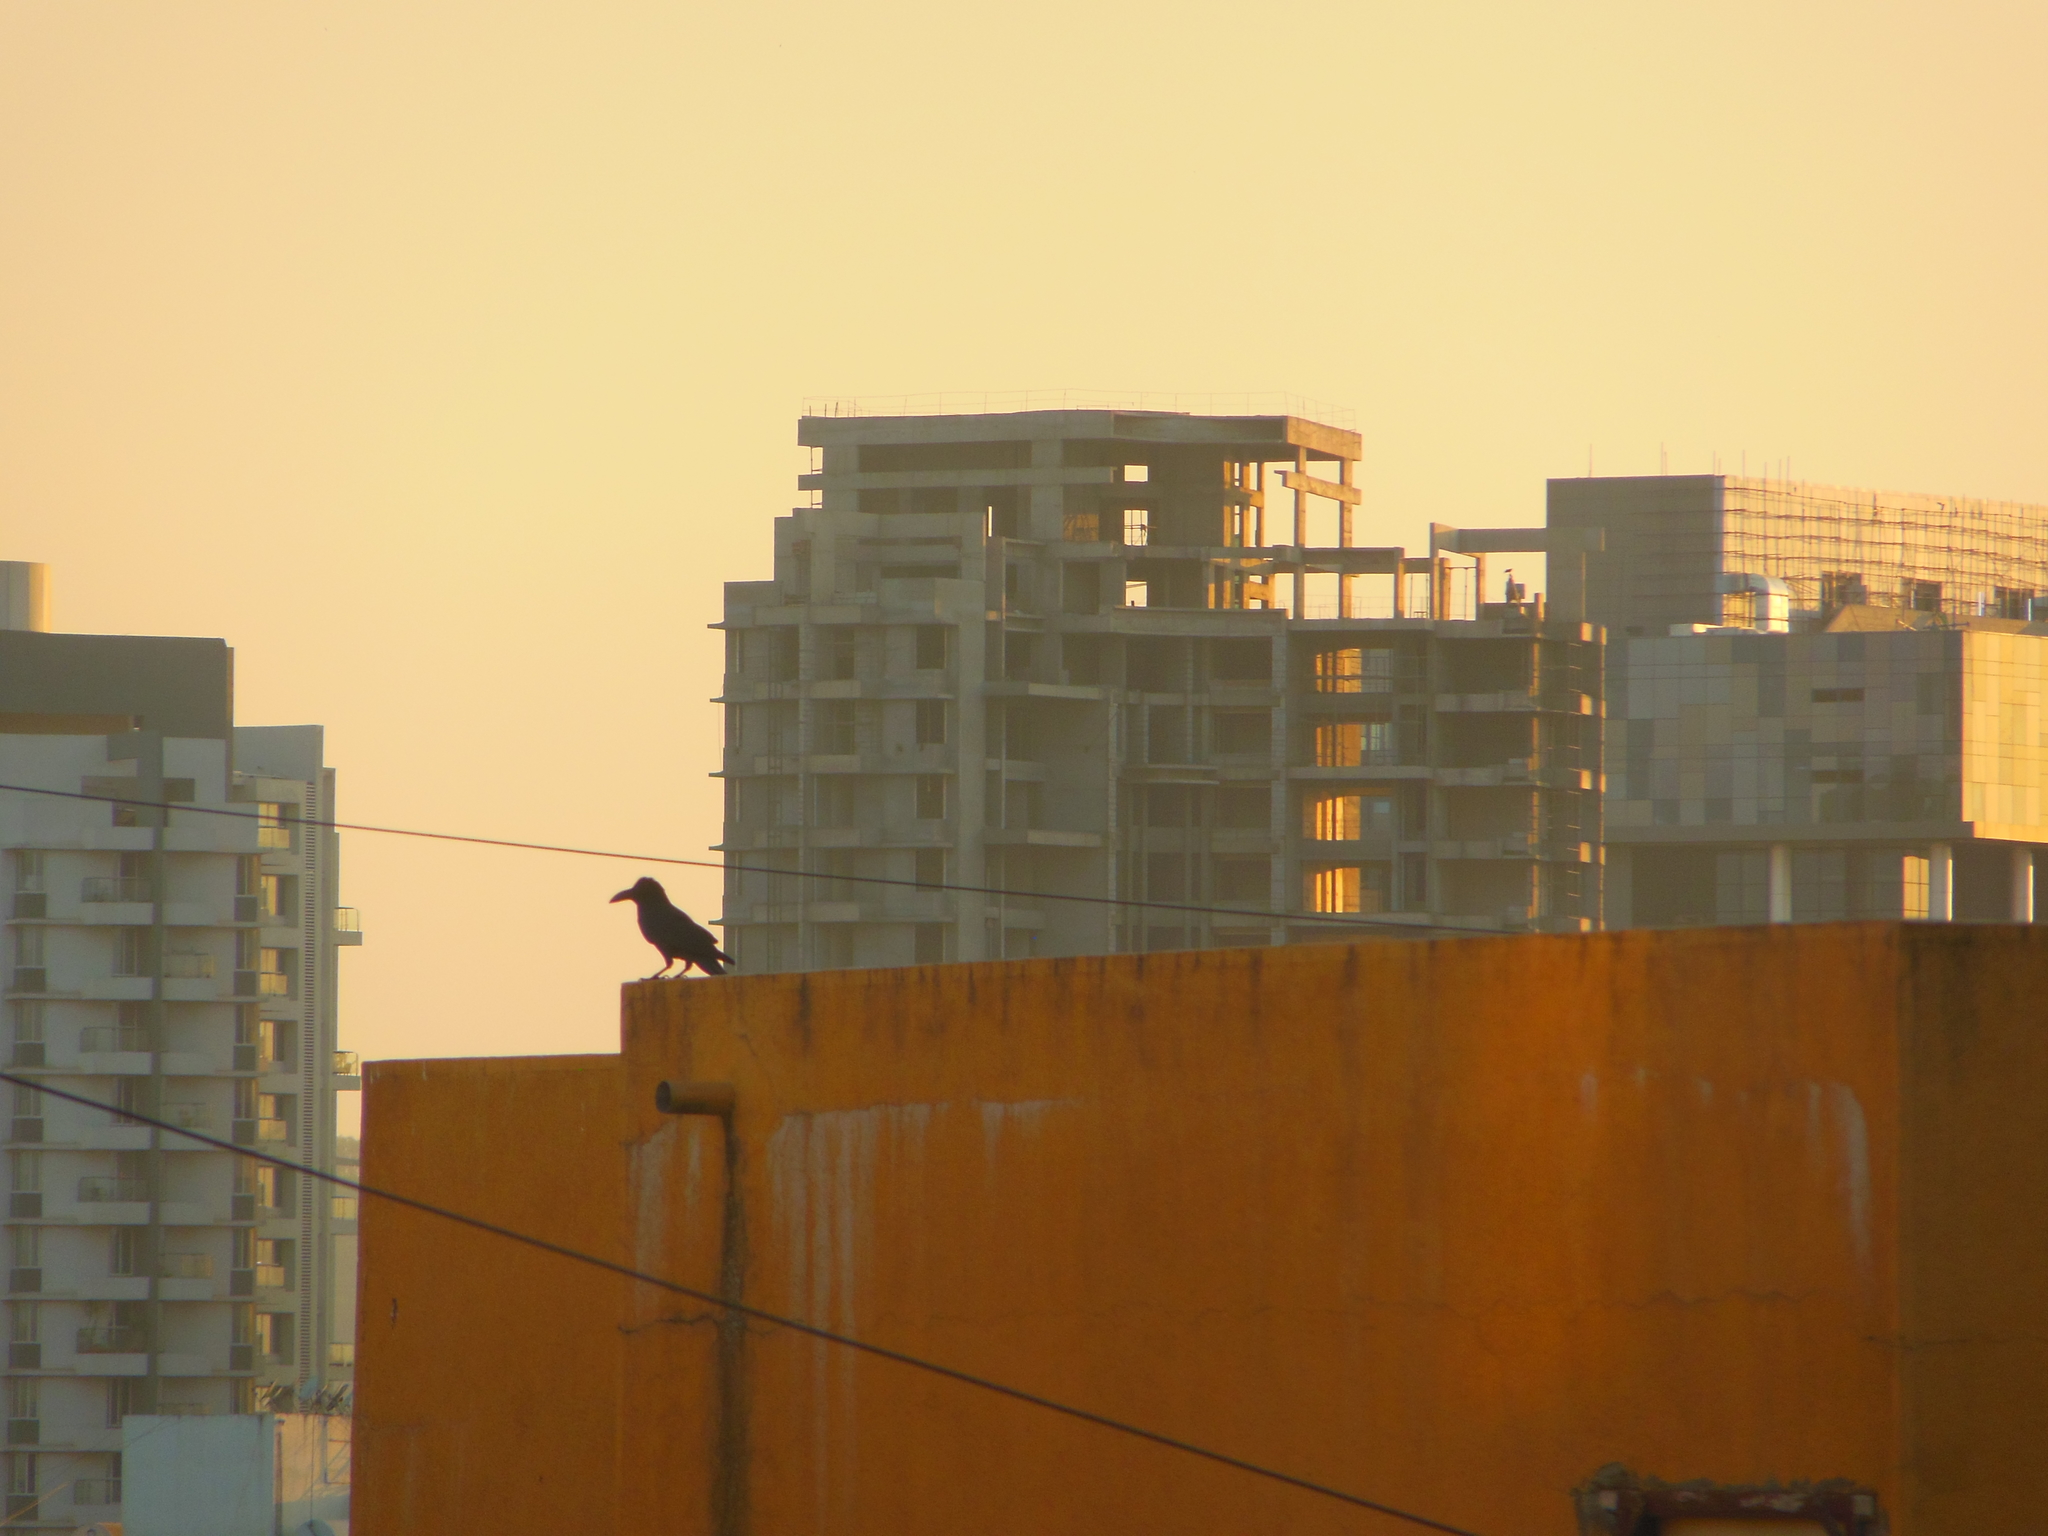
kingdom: Animalia
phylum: Chordata
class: Aves
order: Passeriformes
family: Corvidae
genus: Corvus
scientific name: Corvus macrorhynchos
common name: Large-billed crow
